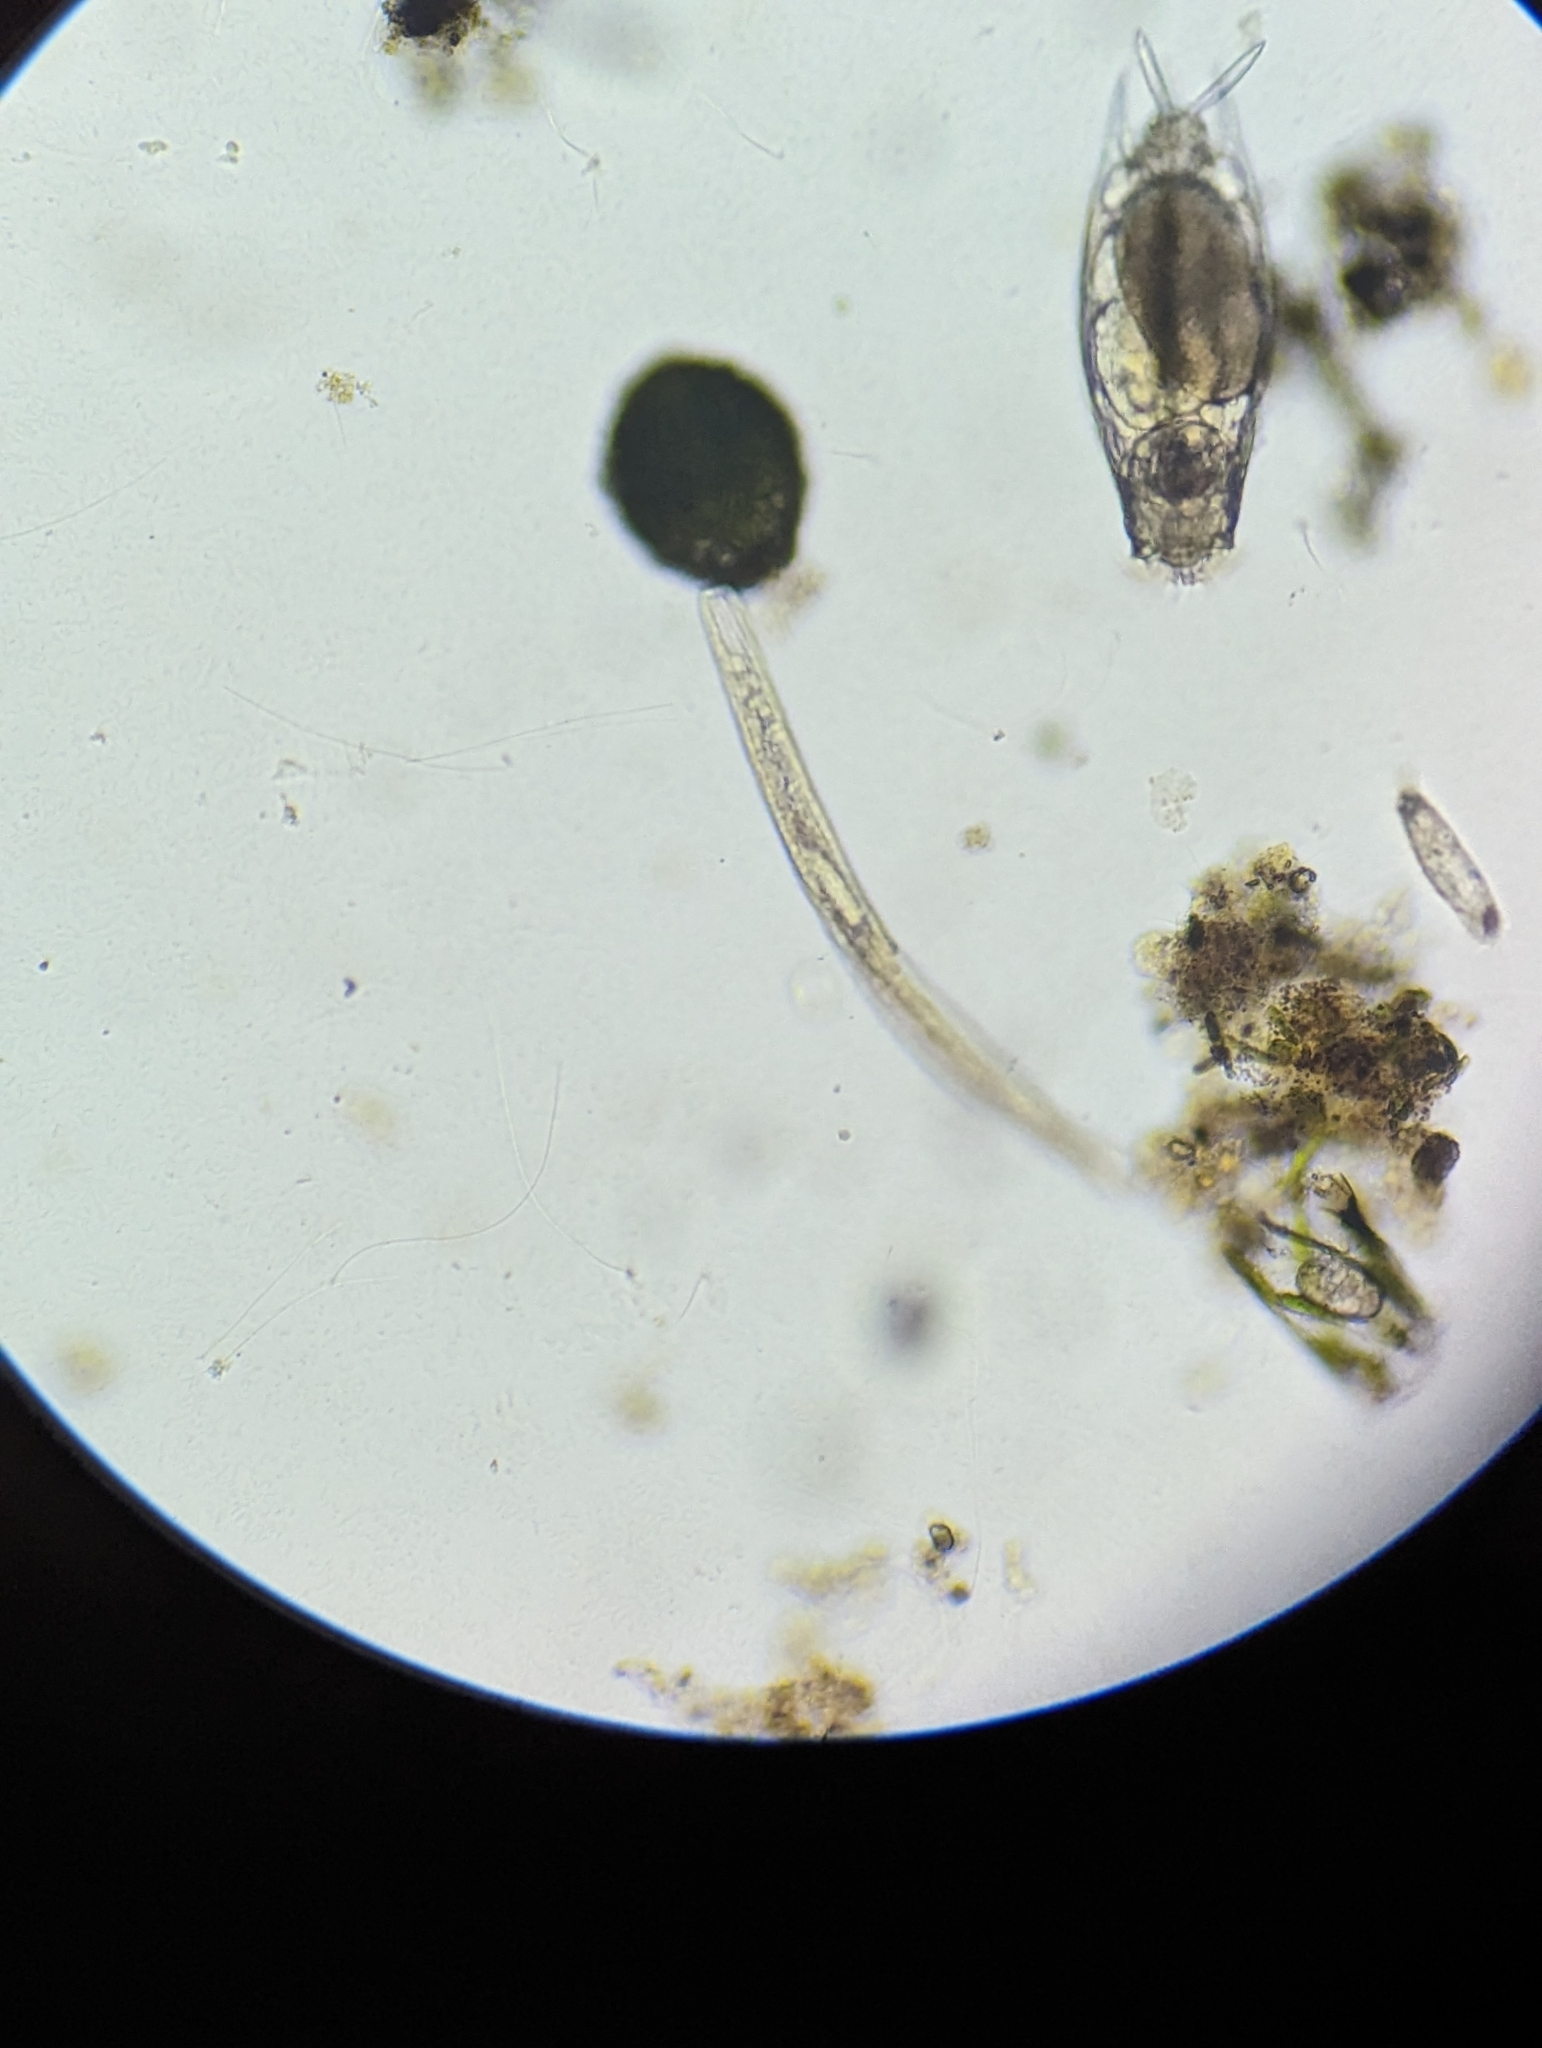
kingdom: Chromista
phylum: Ciliophora
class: Heterotrichea
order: Heterotrichida
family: Spirostomidae
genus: Spirostomum
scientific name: Spirostomum teres
